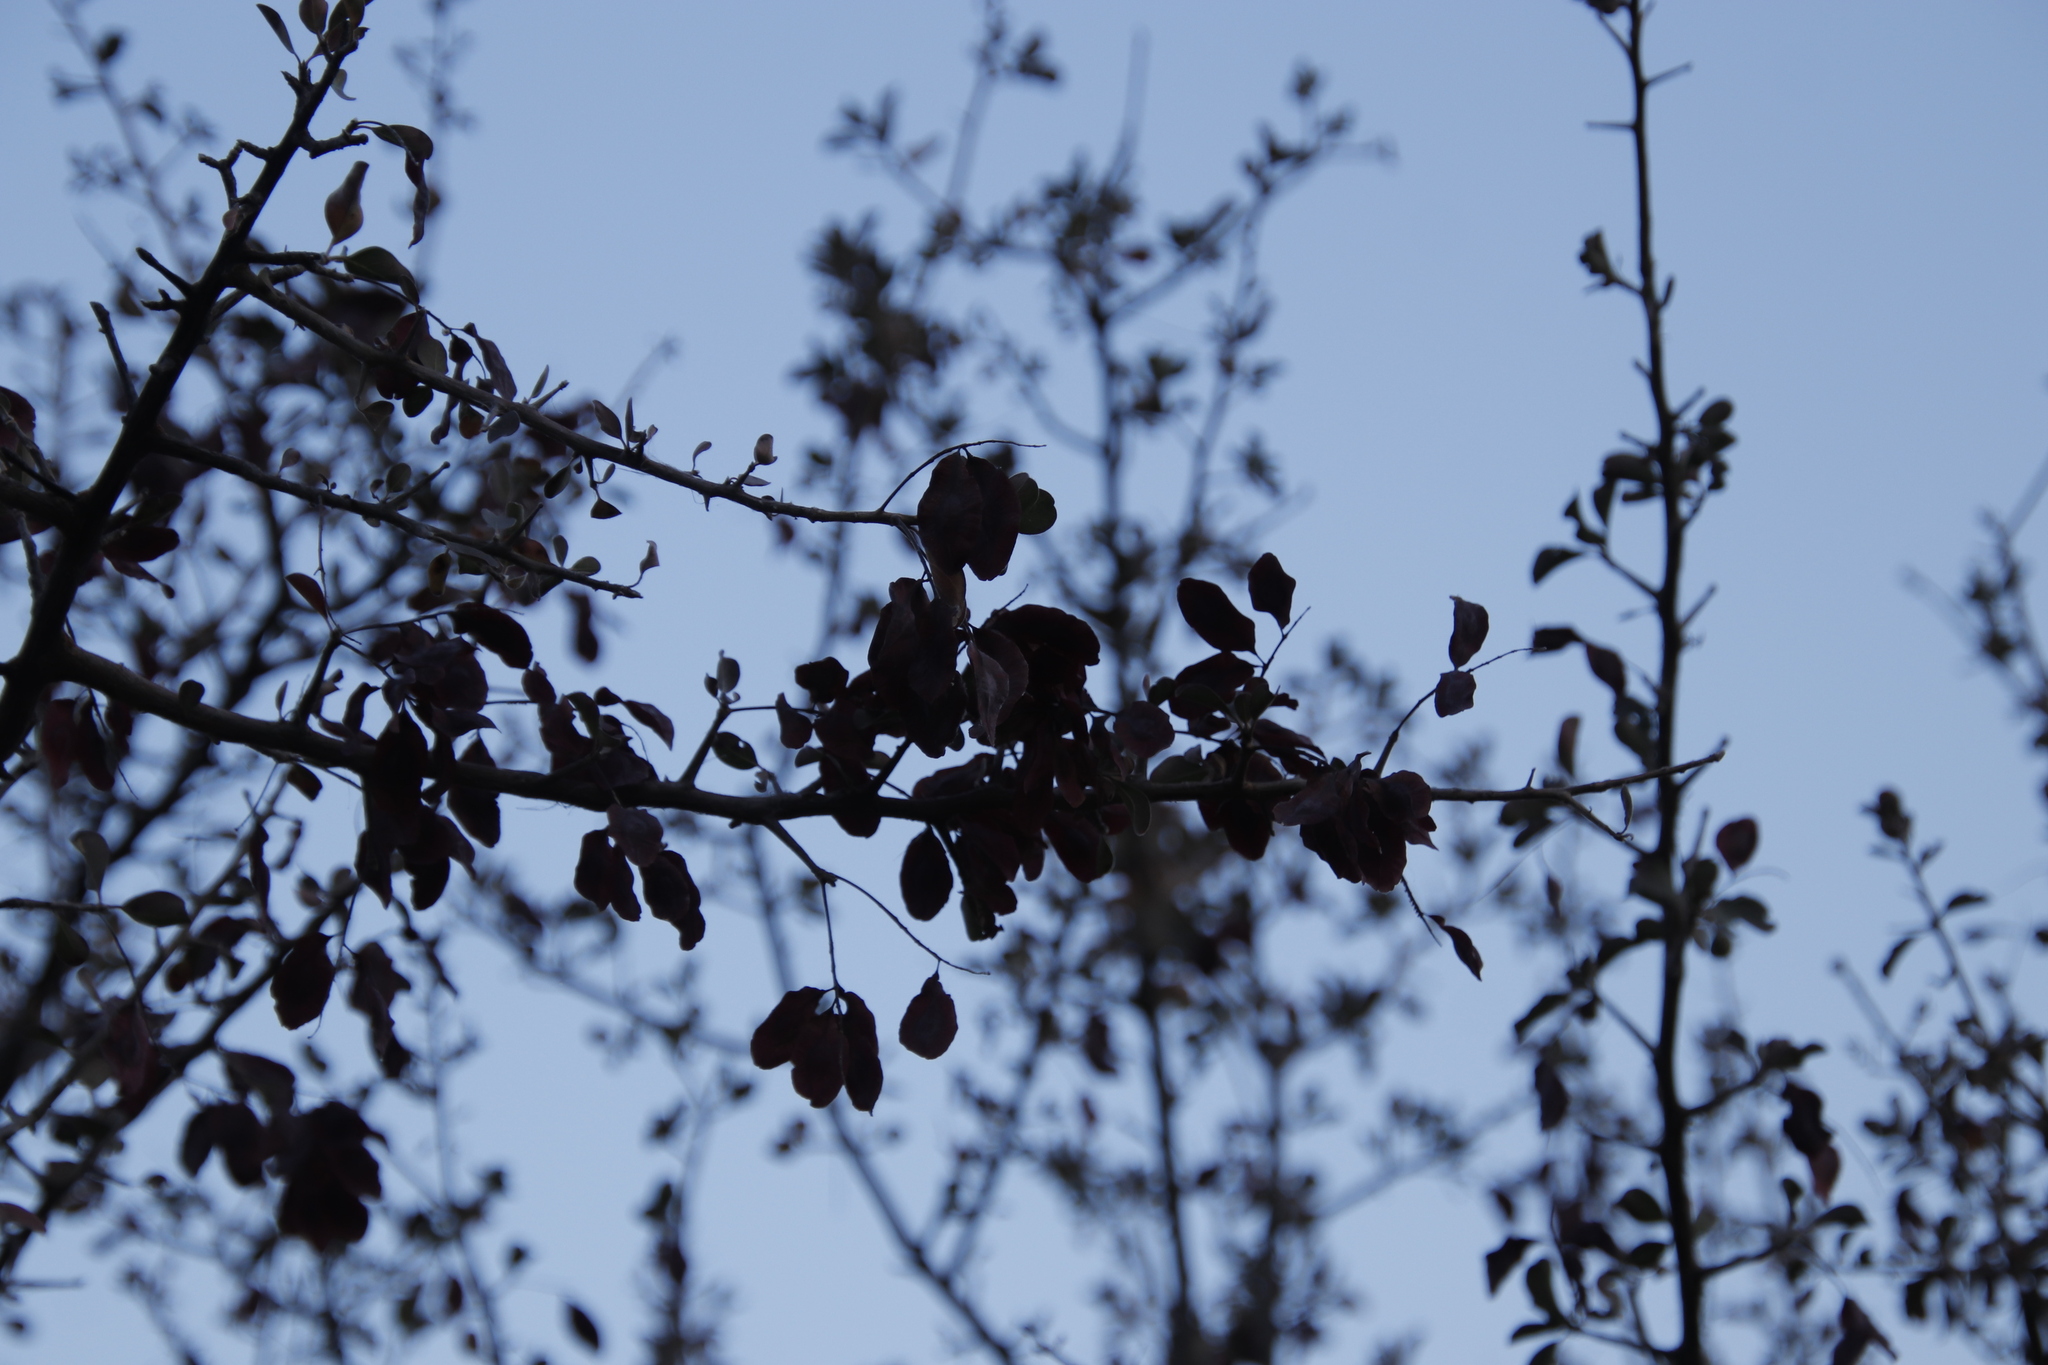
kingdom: Plantae
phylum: Tracheophyta
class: Magnoliopsida
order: Myrtales
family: Combretaceae
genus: Terminalia
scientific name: Terminalia prunioides
